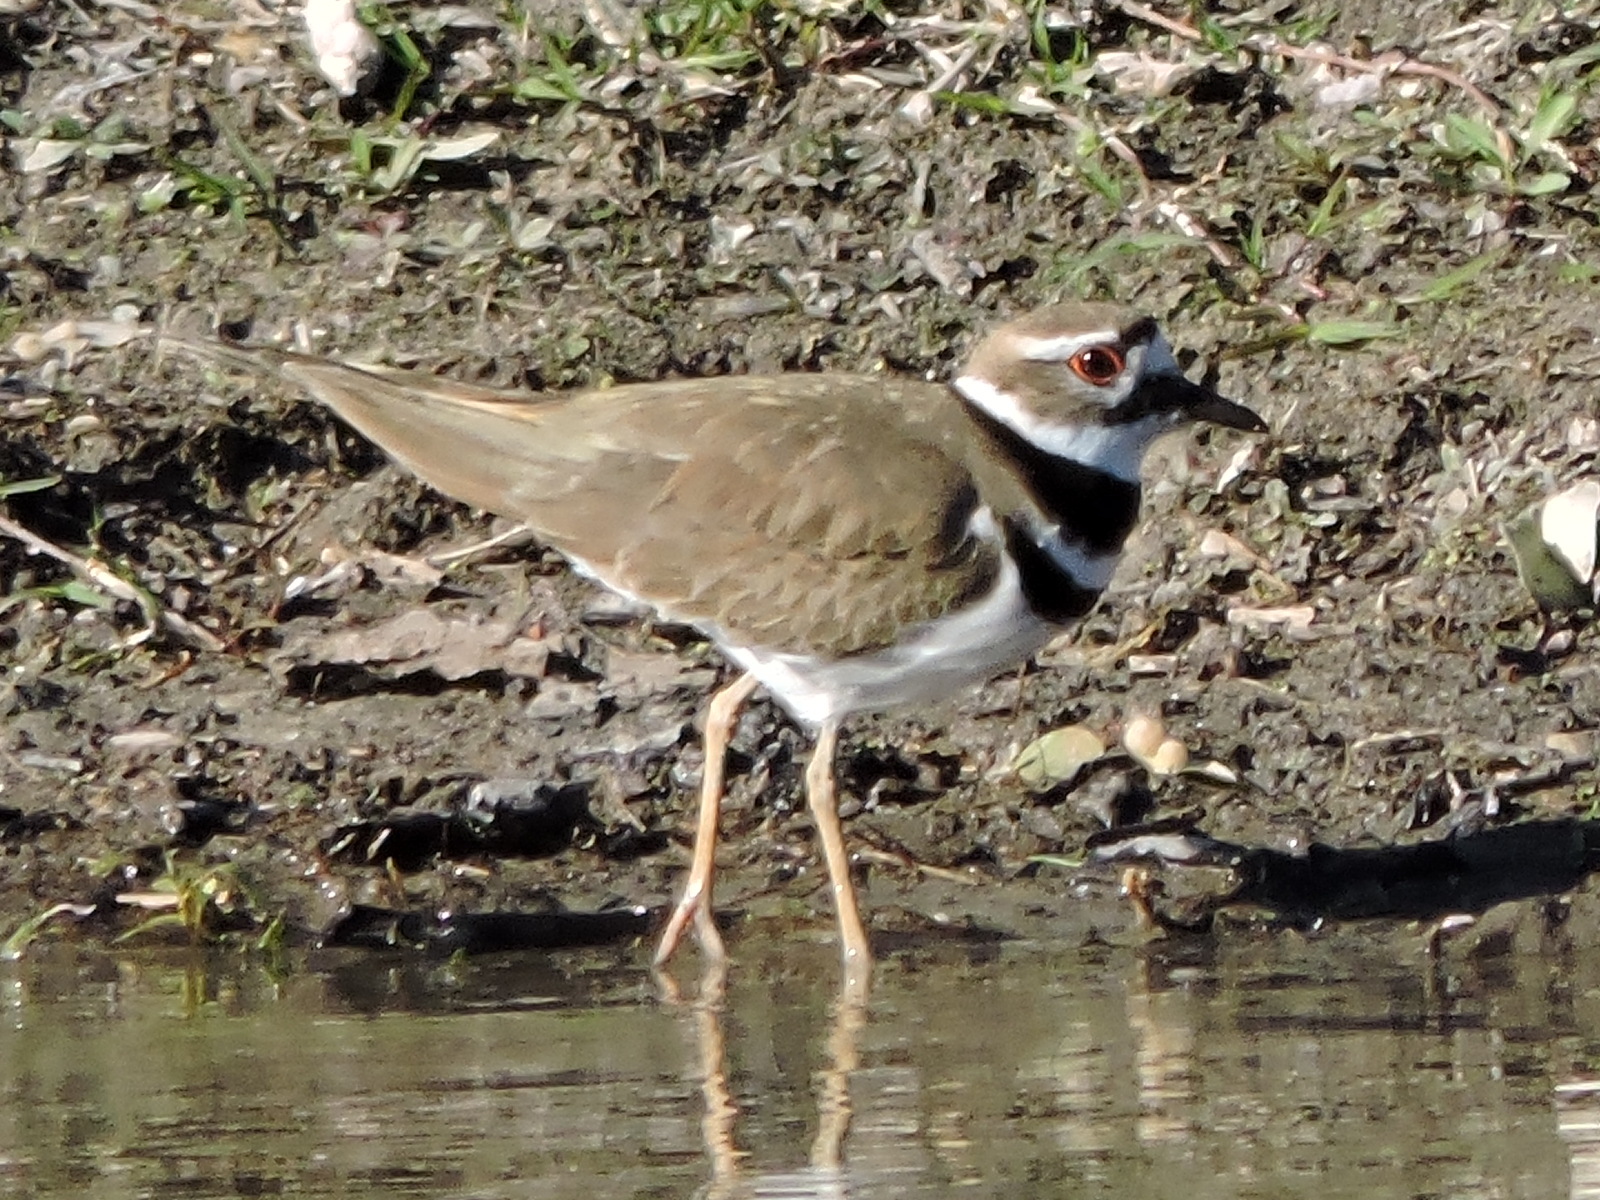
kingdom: Animalia
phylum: Chordata
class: Aves
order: Charadriiformes
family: Charadriidae
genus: Charadrius
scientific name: Charadrius vociferus
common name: Killdeer
